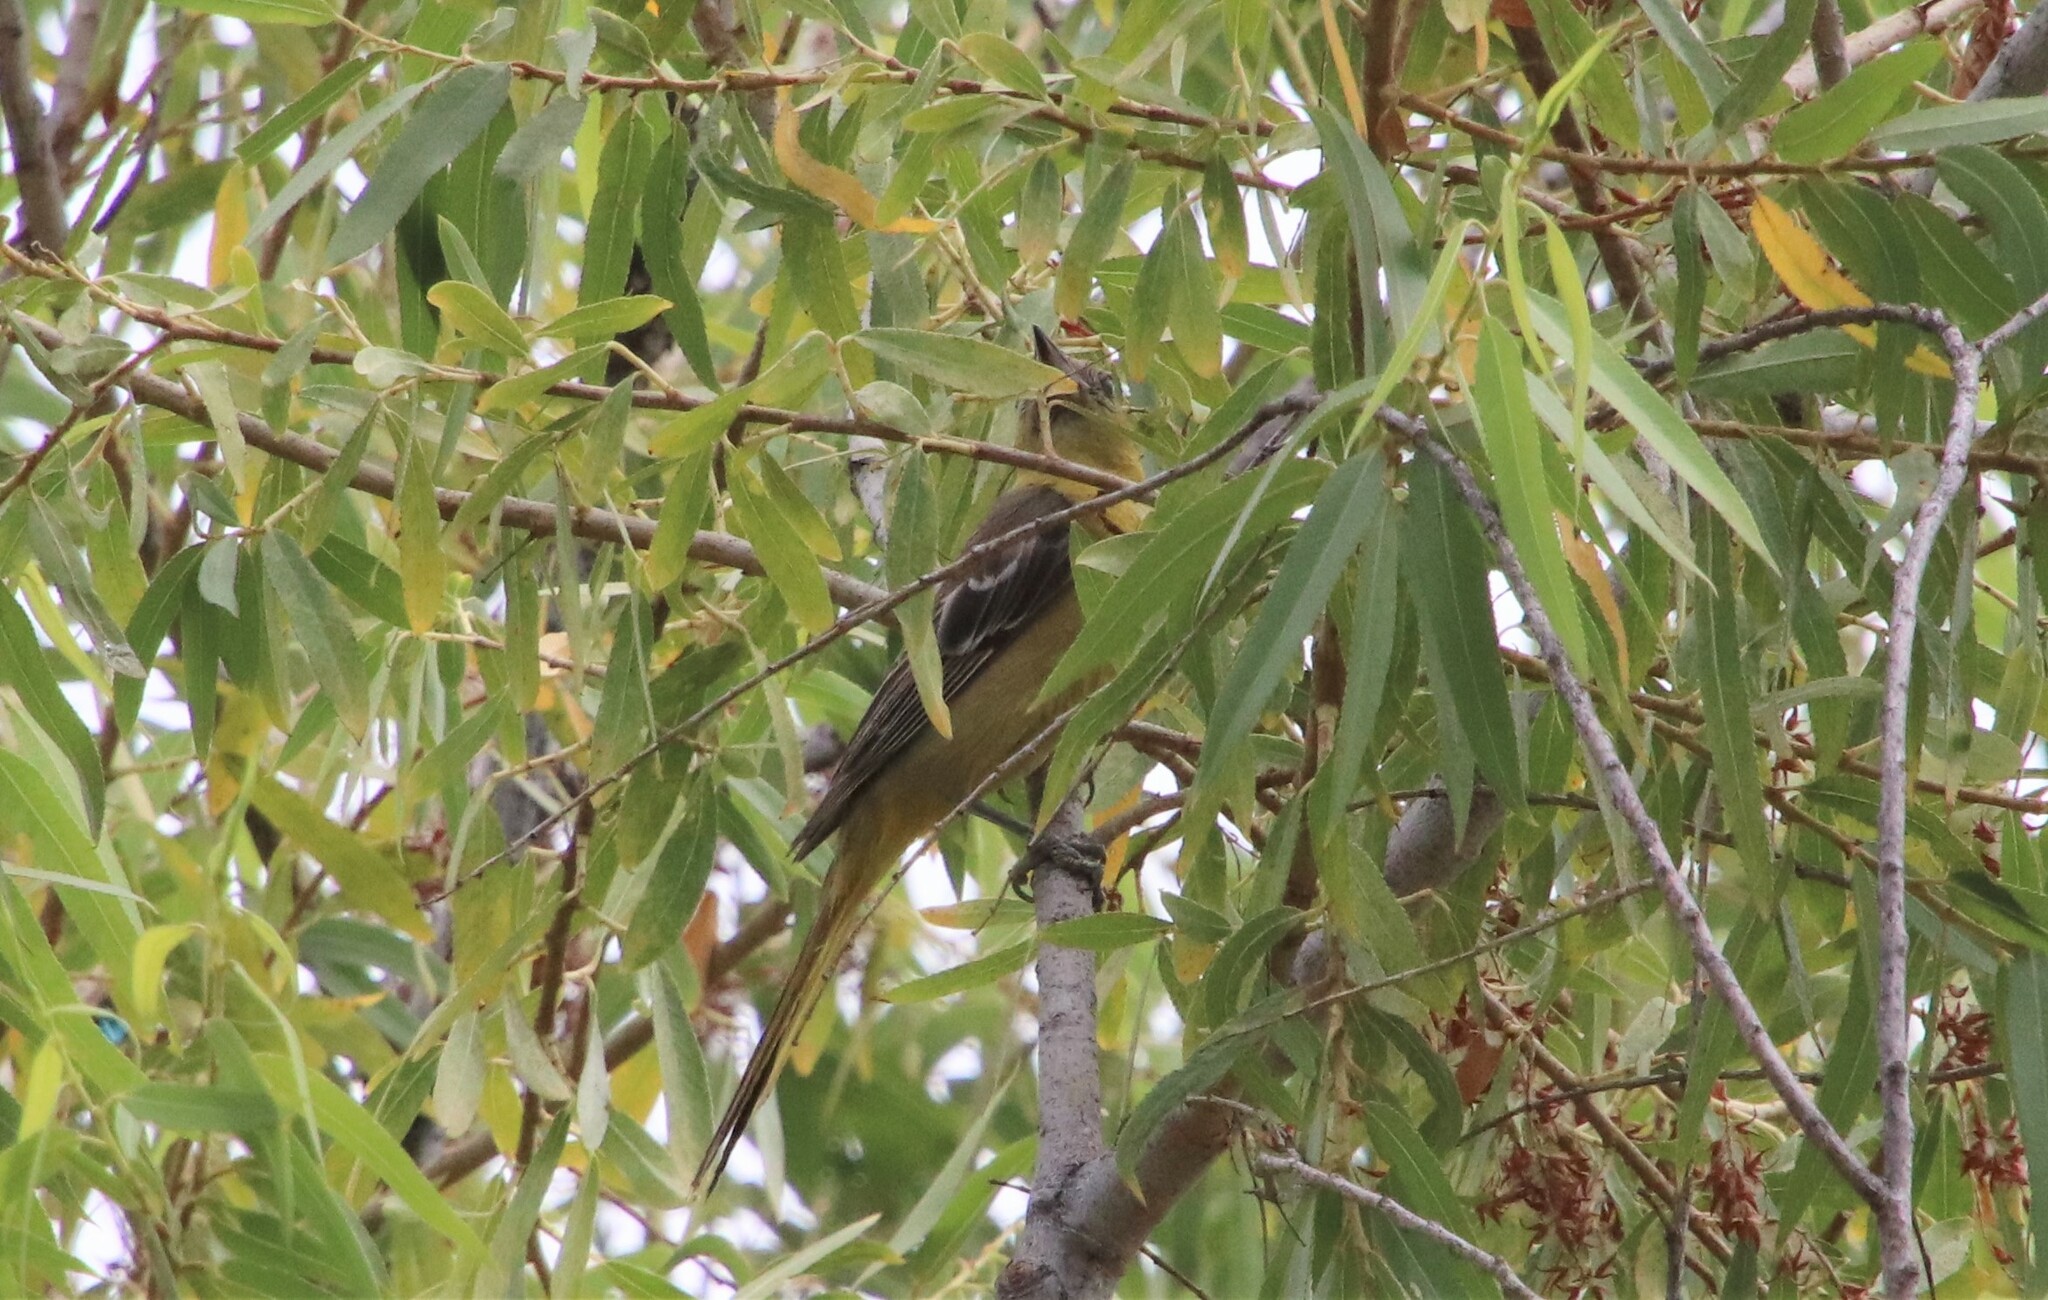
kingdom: Animalia
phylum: Chordata
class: Aves
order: Passeriformes
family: Icteridae
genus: Icterus
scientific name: Icterus cucullatus
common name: Hooded oriole
